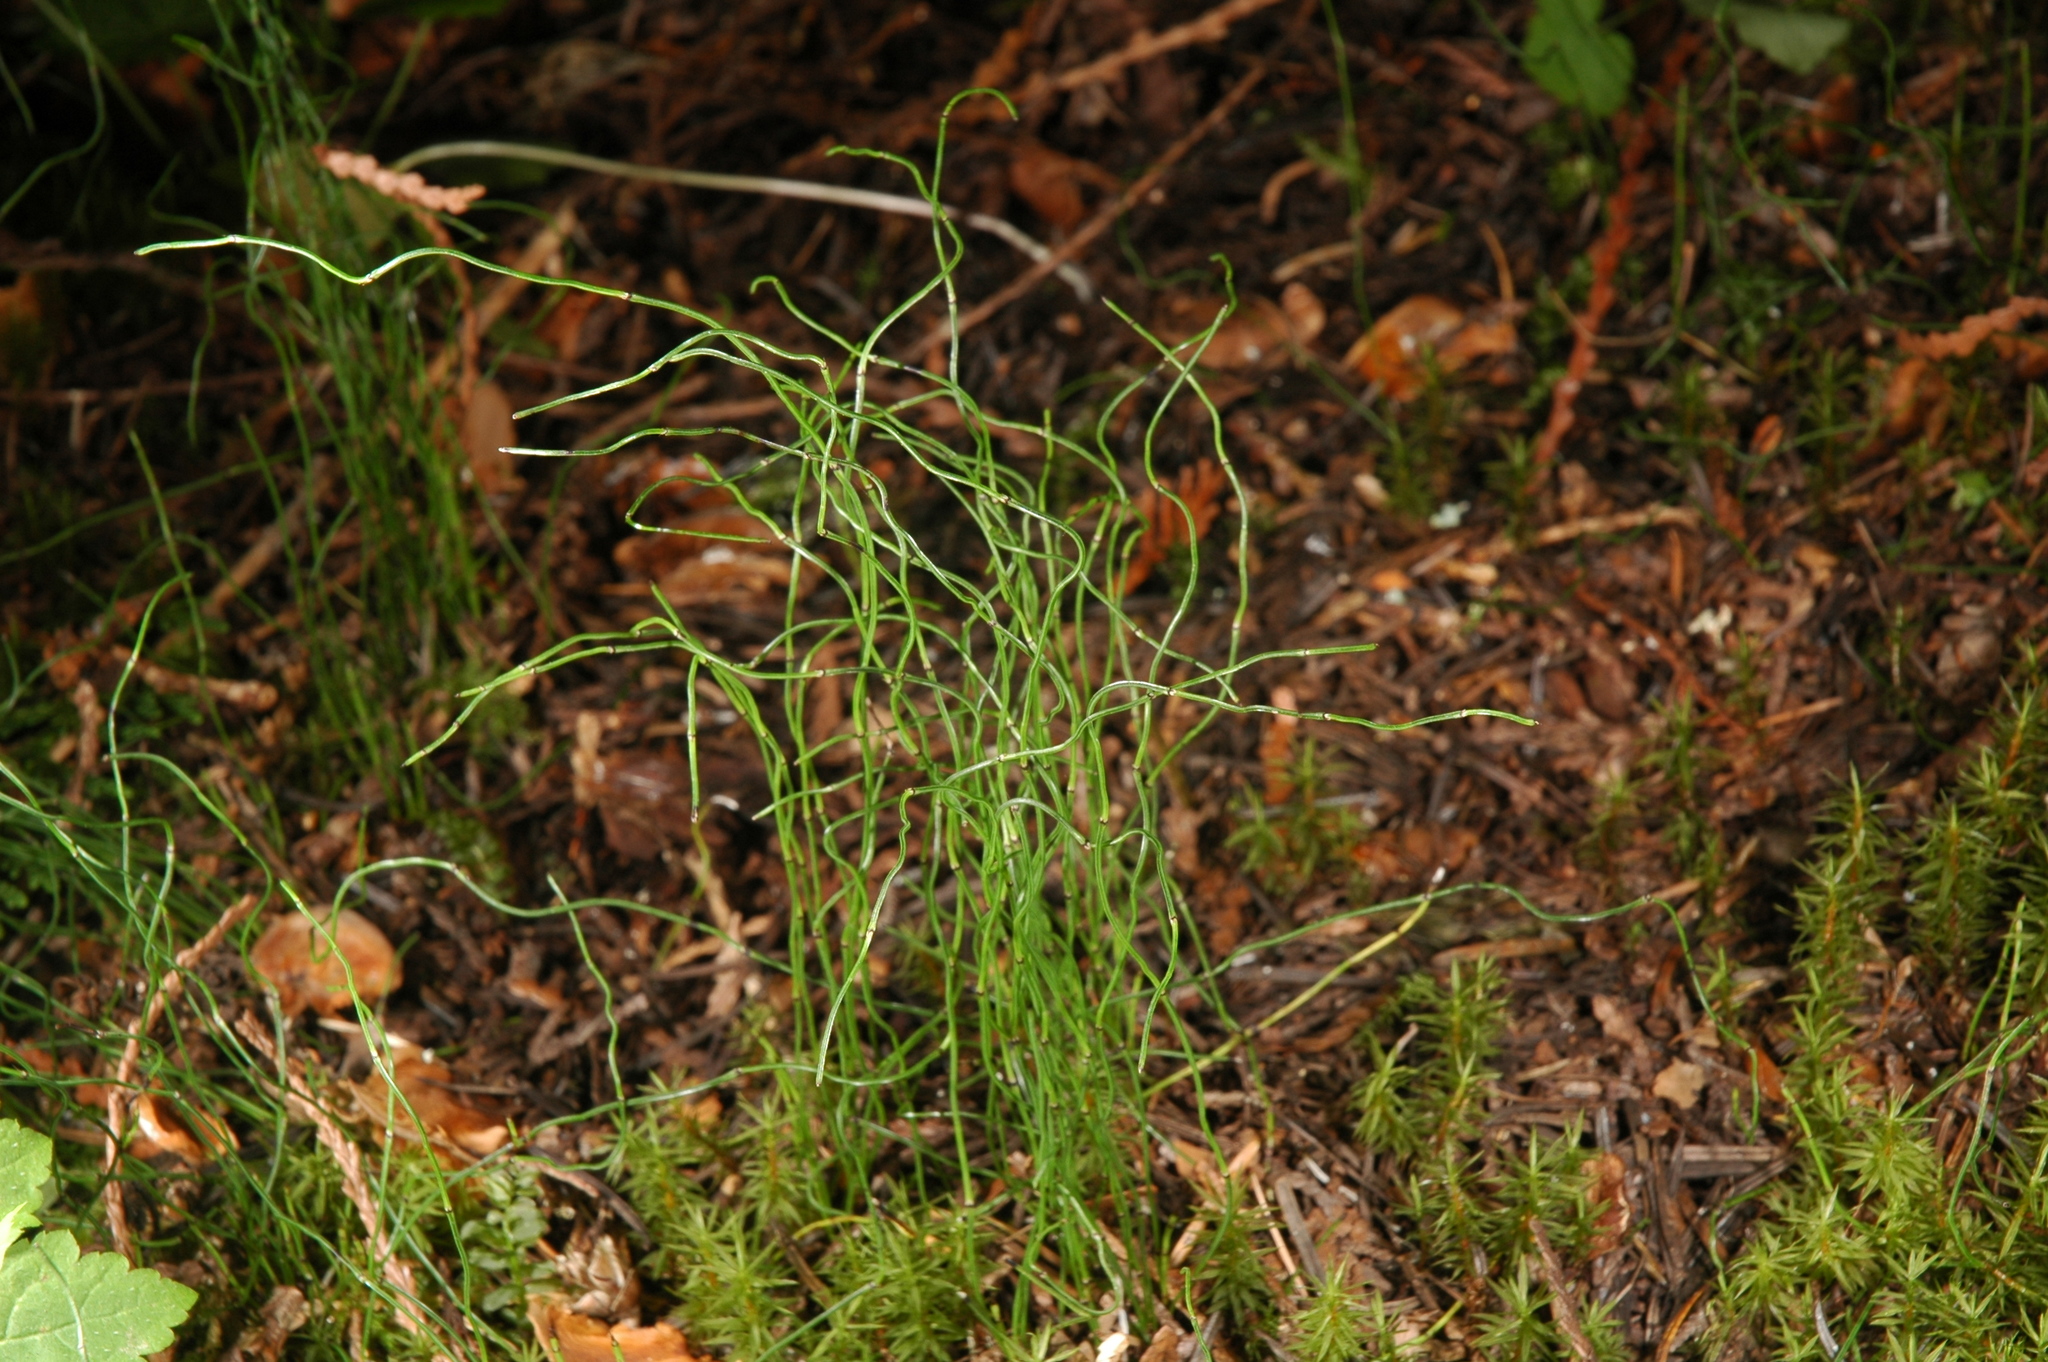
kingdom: Plantae
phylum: Tracheophyta
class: Polypodiopsida
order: Equisetales
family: Equisetaceae
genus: Equisetum
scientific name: Equisetum scirpoides
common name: Delicate horsetail
